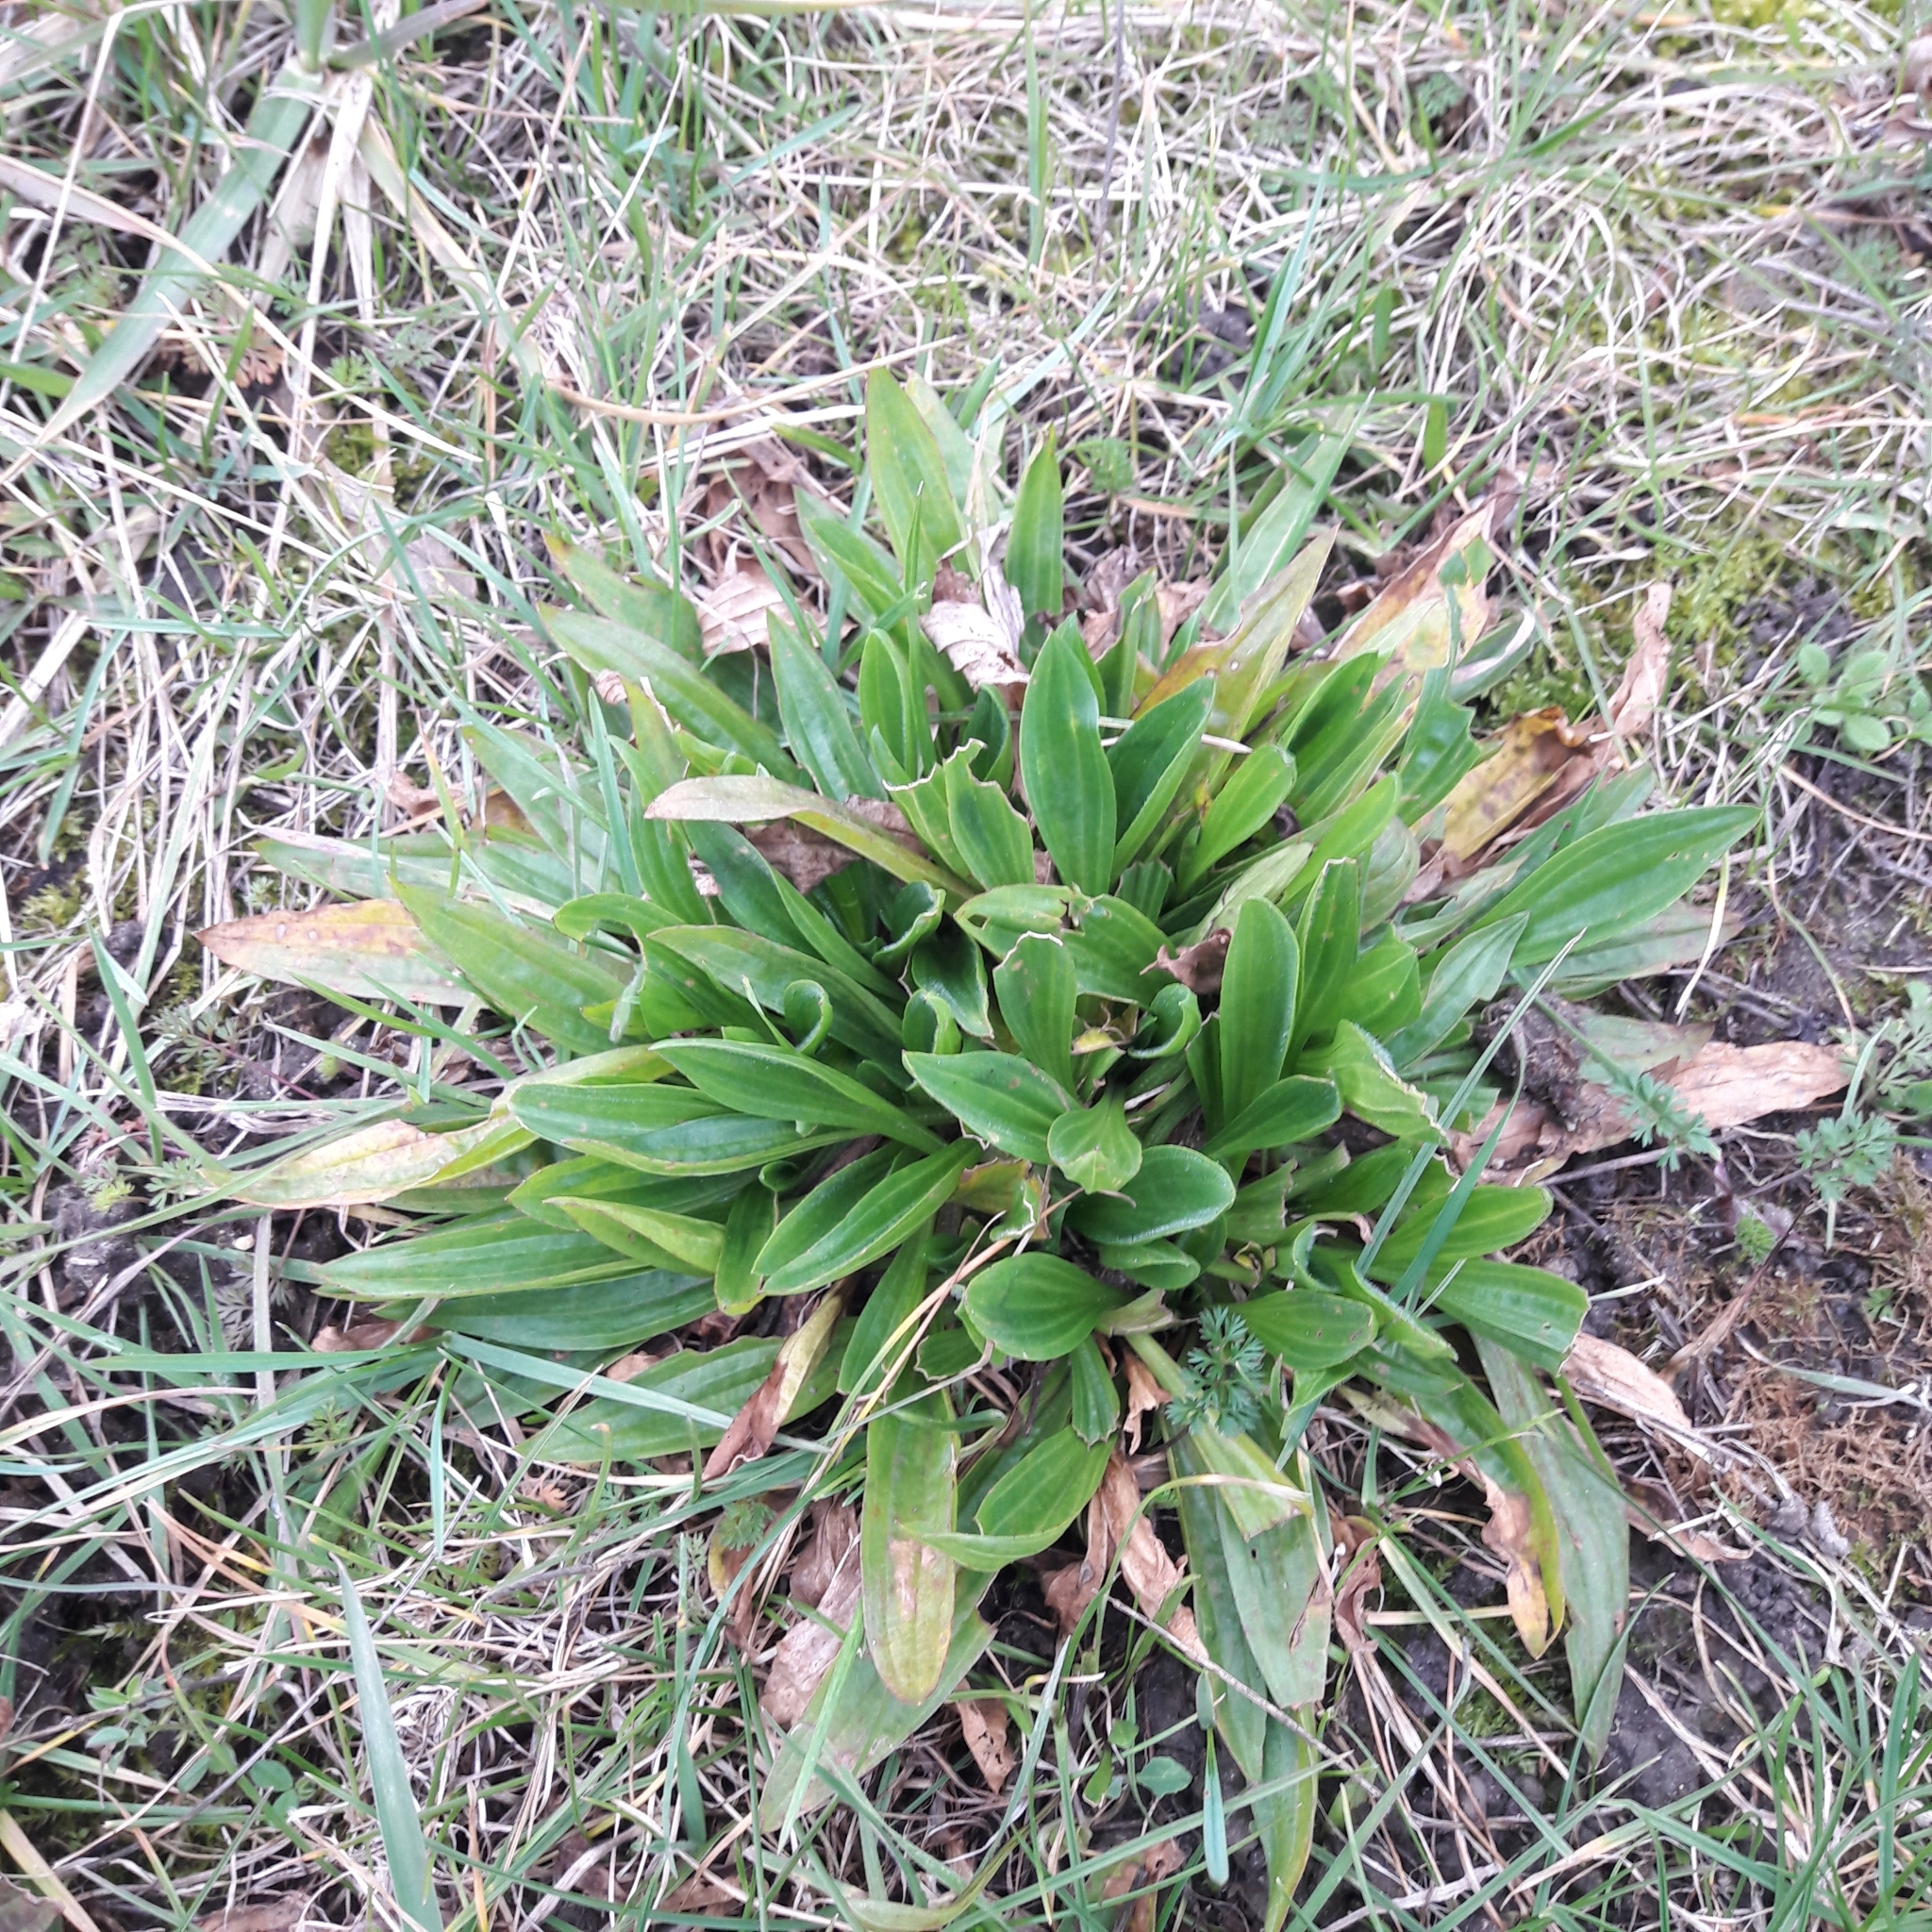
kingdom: Plantae
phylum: Tracheophyta
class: Magnoliopsida
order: Lamiales
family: Plantaginaceae
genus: Plantago
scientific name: Plantago lanceolata
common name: Ribwort plantain
